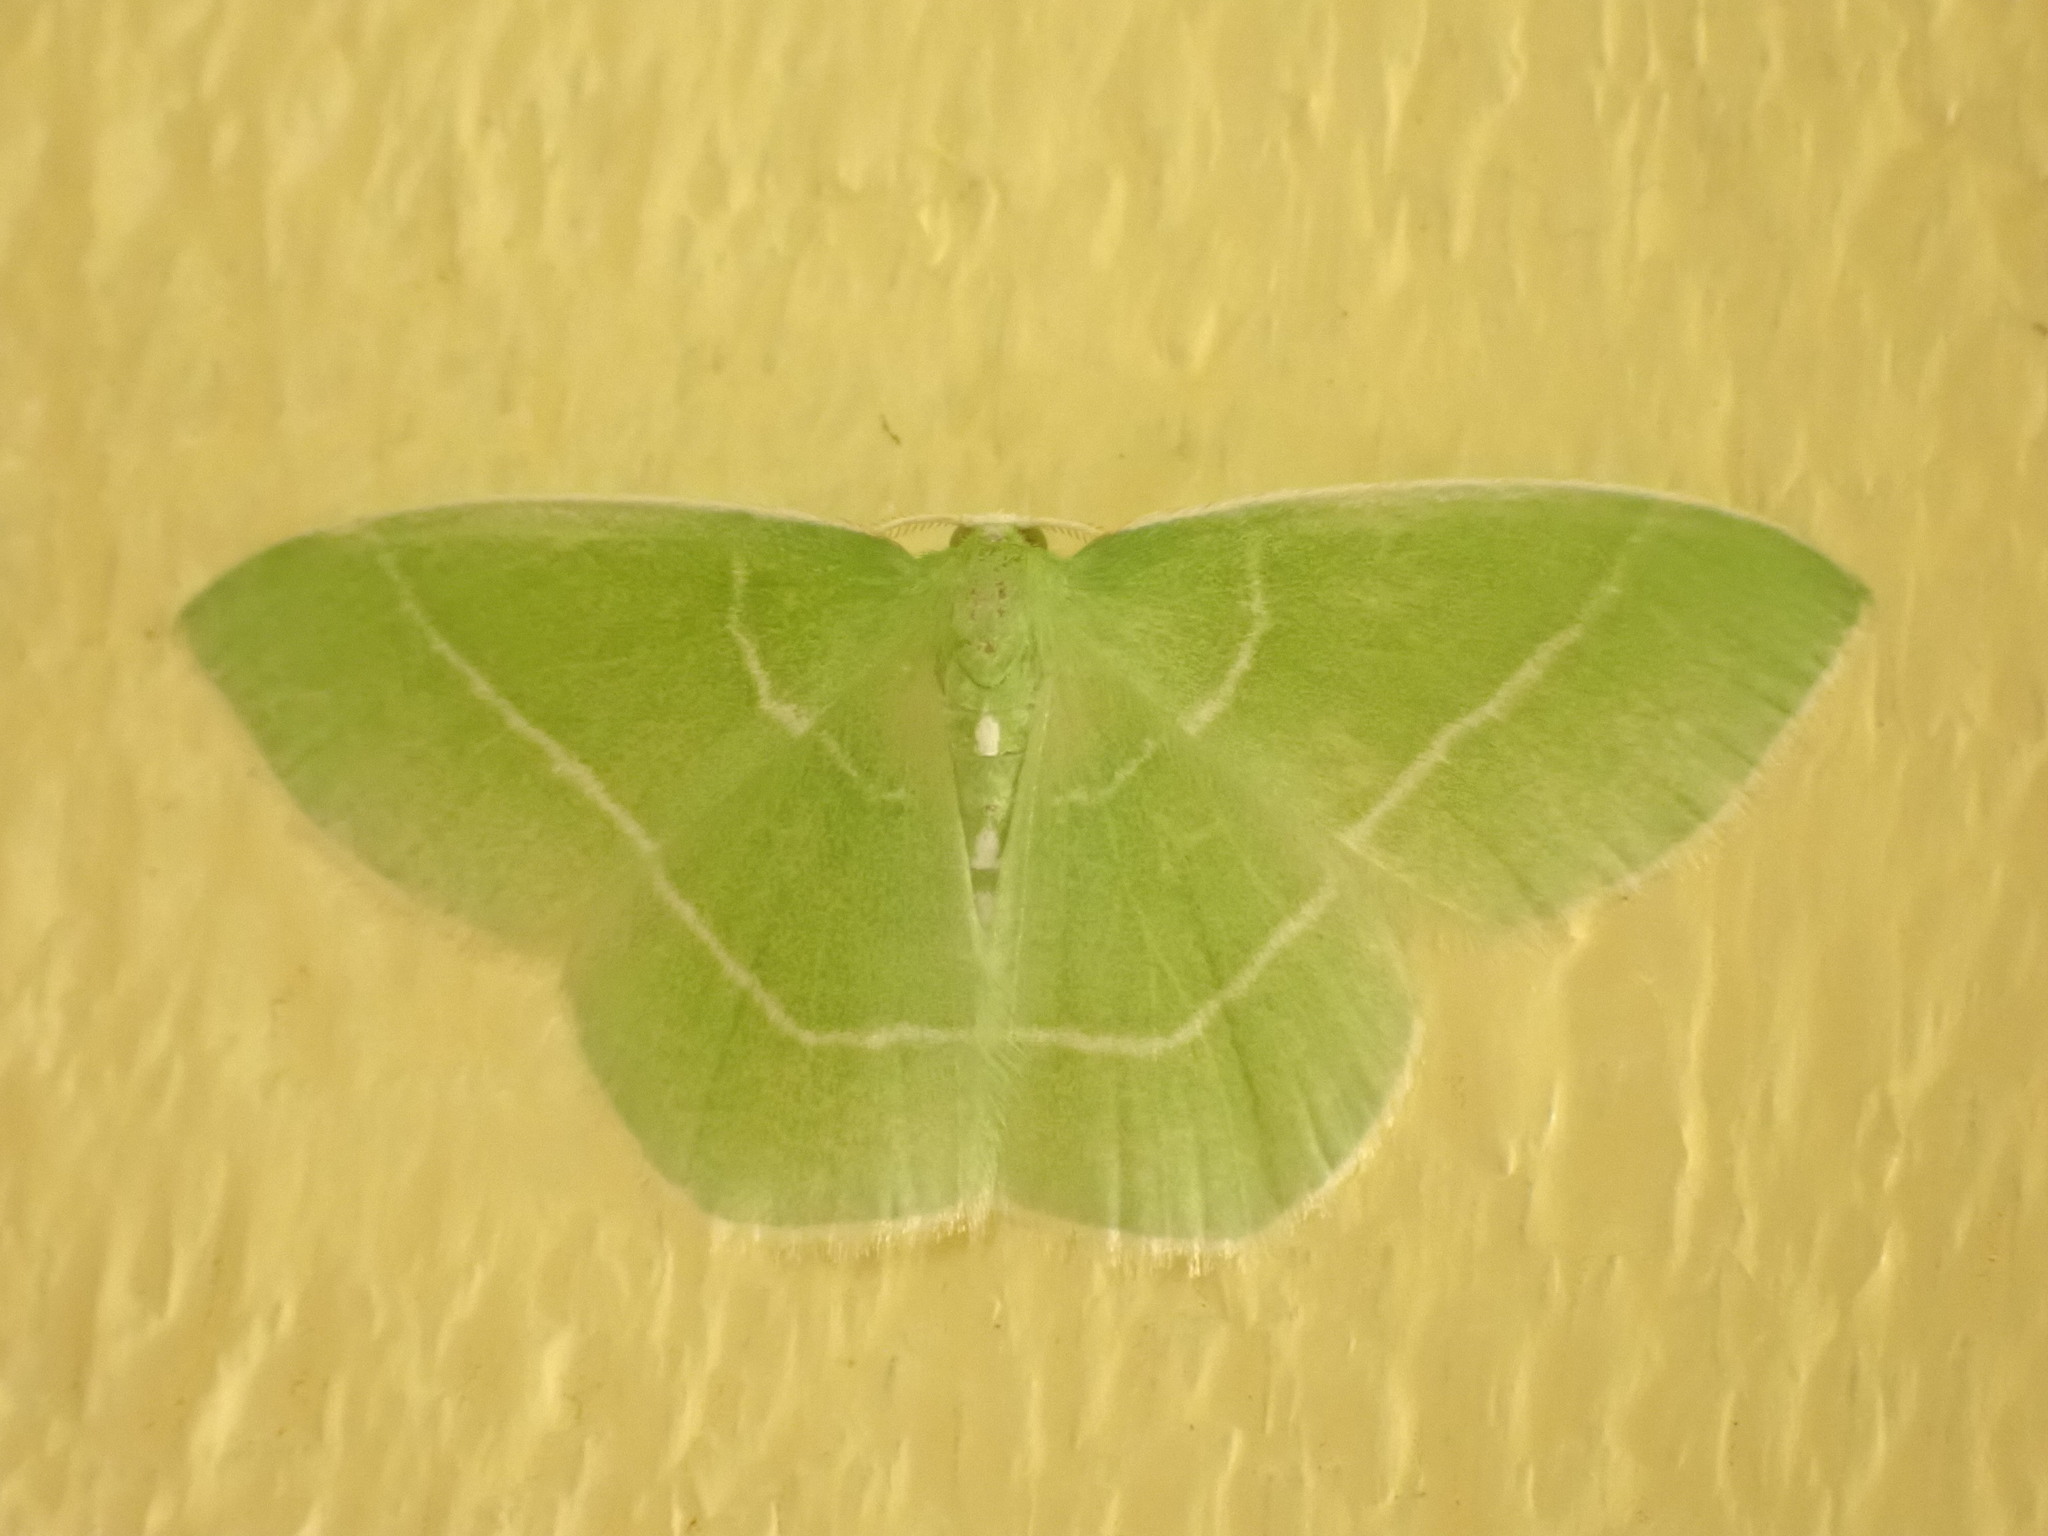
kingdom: Animalia
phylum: Arthropoda
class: Insecta
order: Lepidoptera
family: Geometridae
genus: Nemoria
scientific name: Nemoria mimosaria
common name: White-fringed emerald
